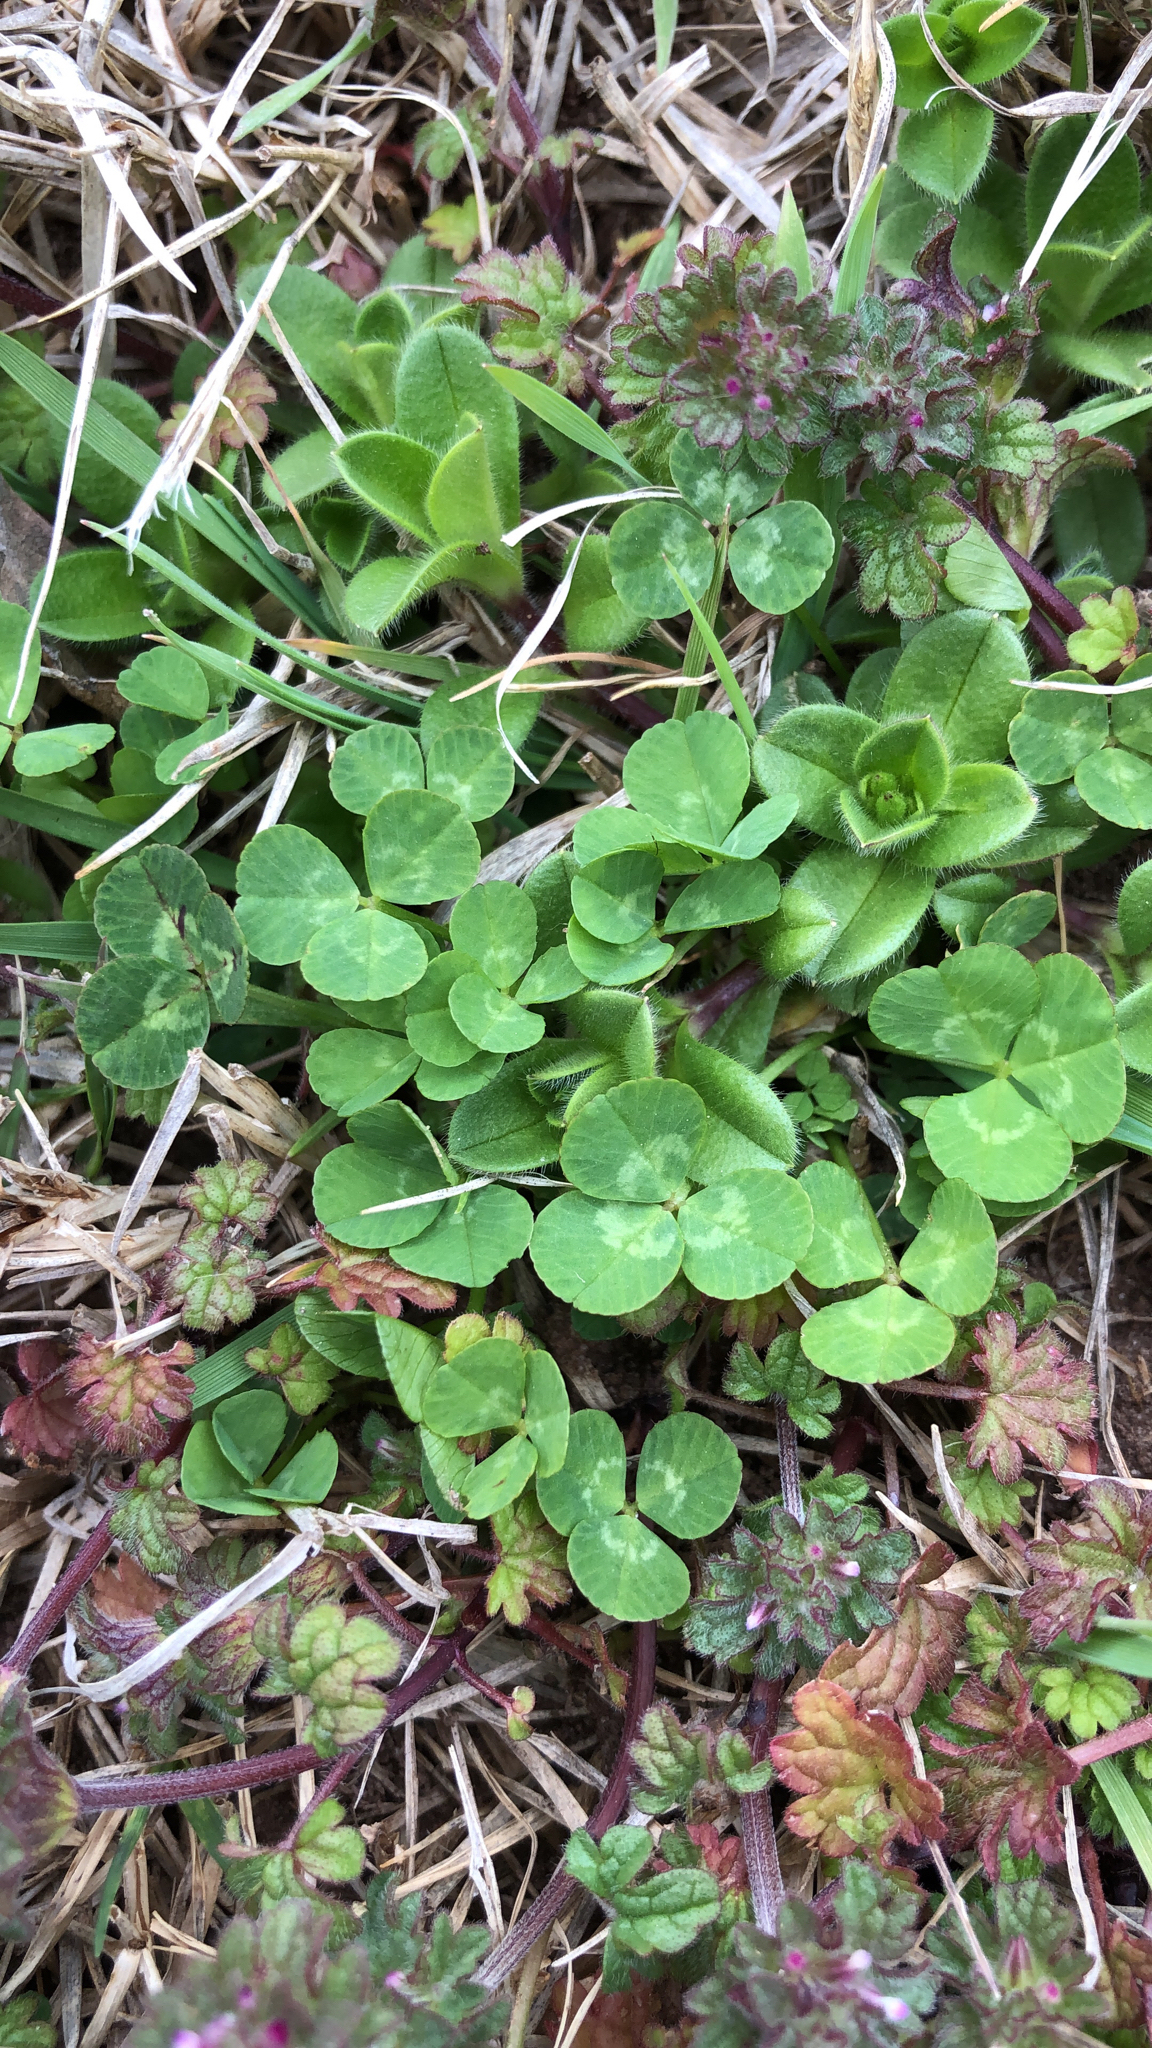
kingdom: Plantae
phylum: Tracheophyta
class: Magnoliopsida
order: Fabales
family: Fabaceae
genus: Trifolium
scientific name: Trifolium repens
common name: White clover
